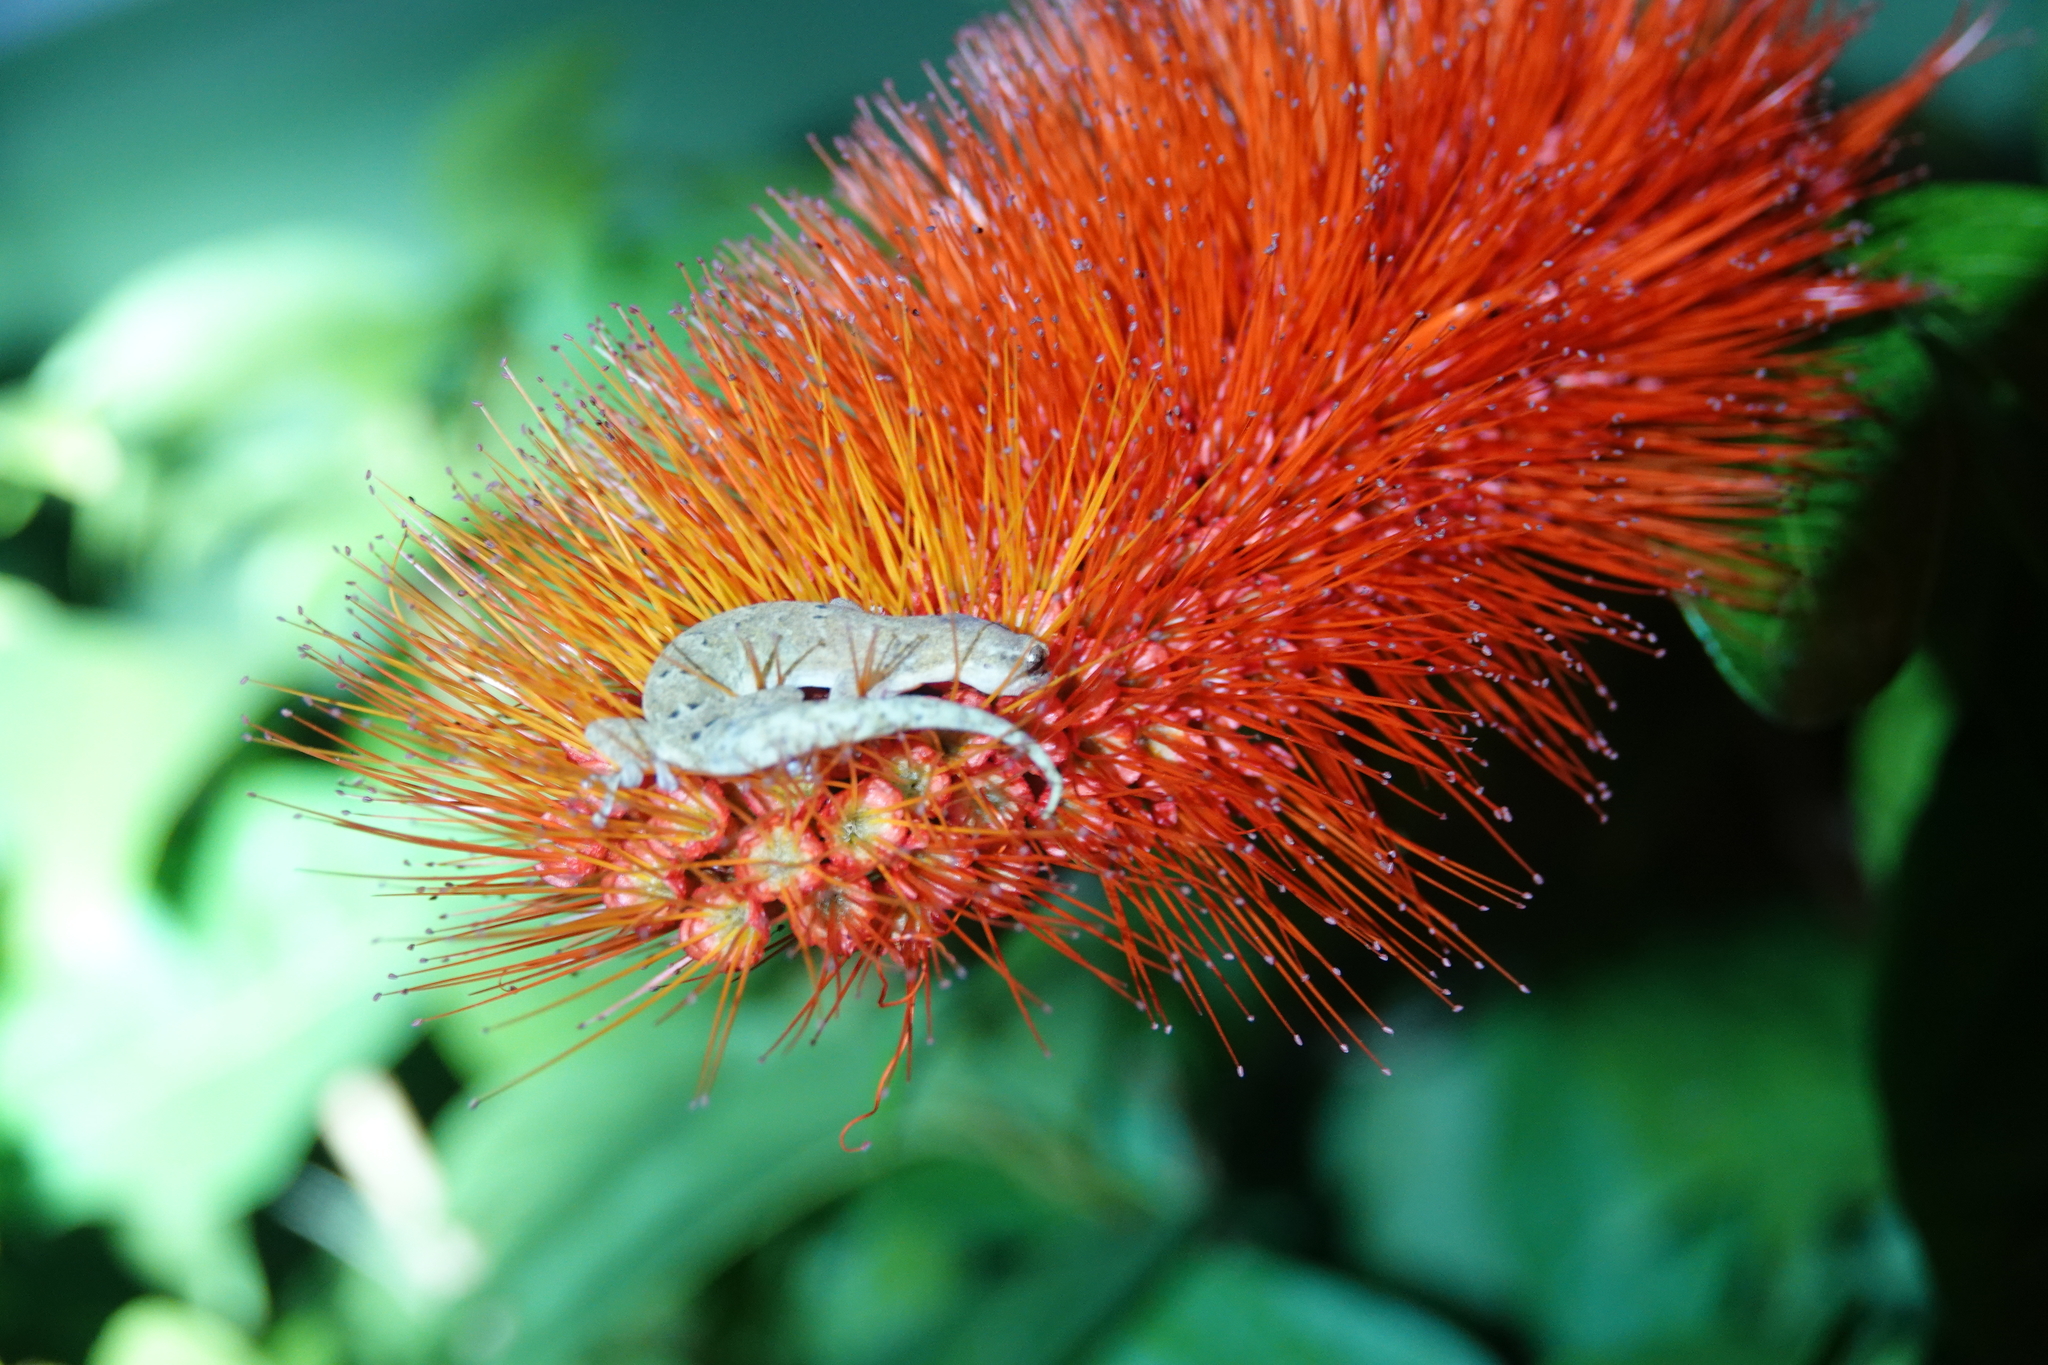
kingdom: Animalia
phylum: Chordata
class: Squamata
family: Gekkonidae
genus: Lepidodactylus
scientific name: Lepidodactylus lugubris
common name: Mourning gecko
